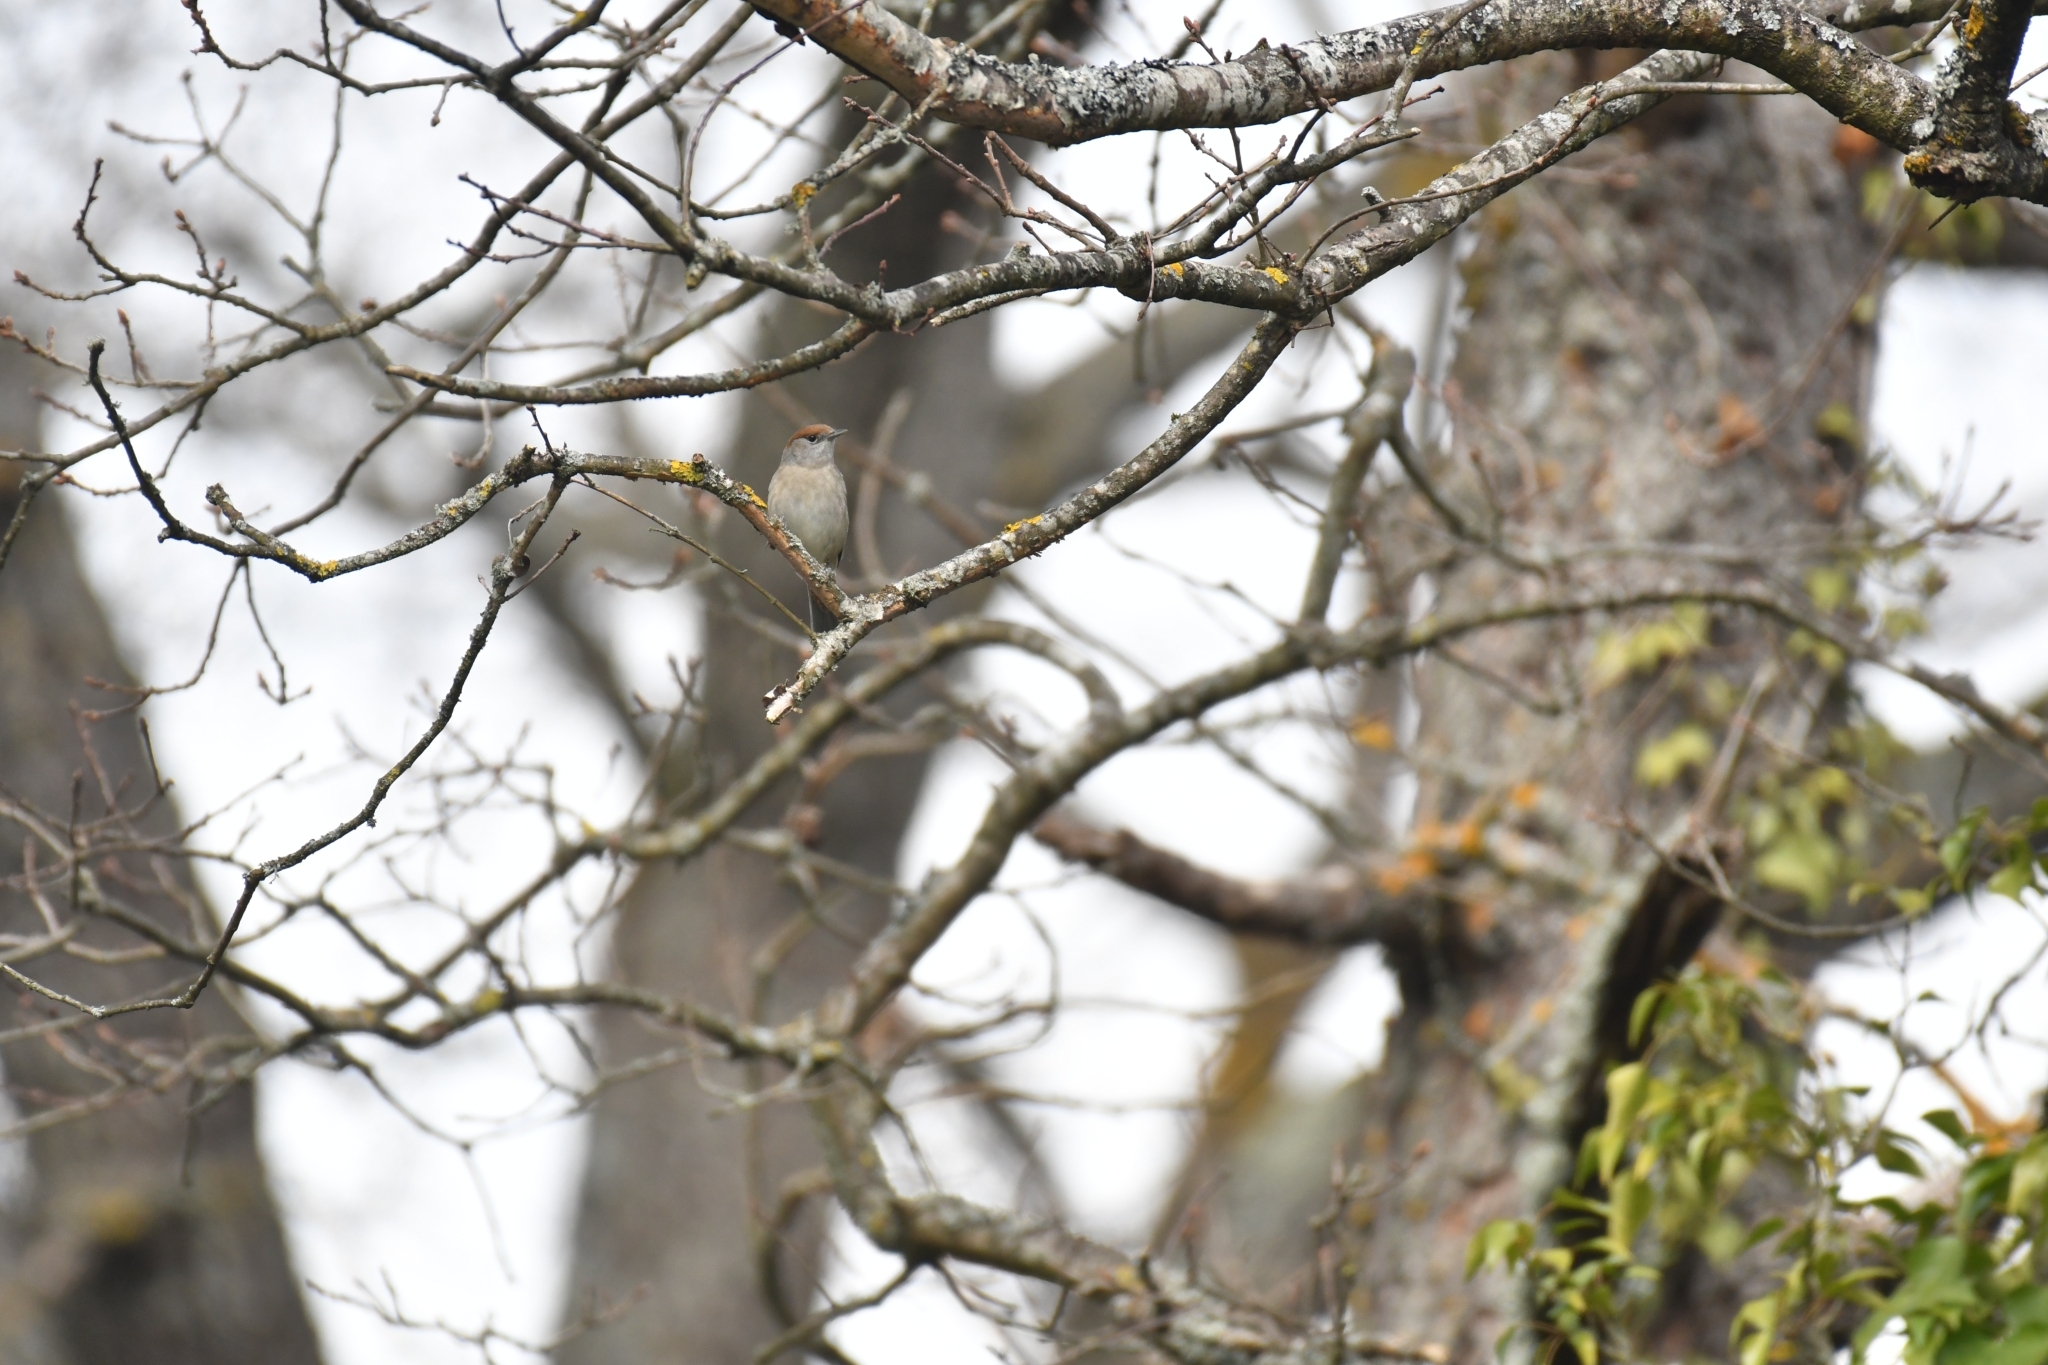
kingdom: Animalia
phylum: Chordata
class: Aves
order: Passeriformes
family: Sylviidae
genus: Sylvia
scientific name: Sylvia atricapilla
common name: Eurasian blackcap
